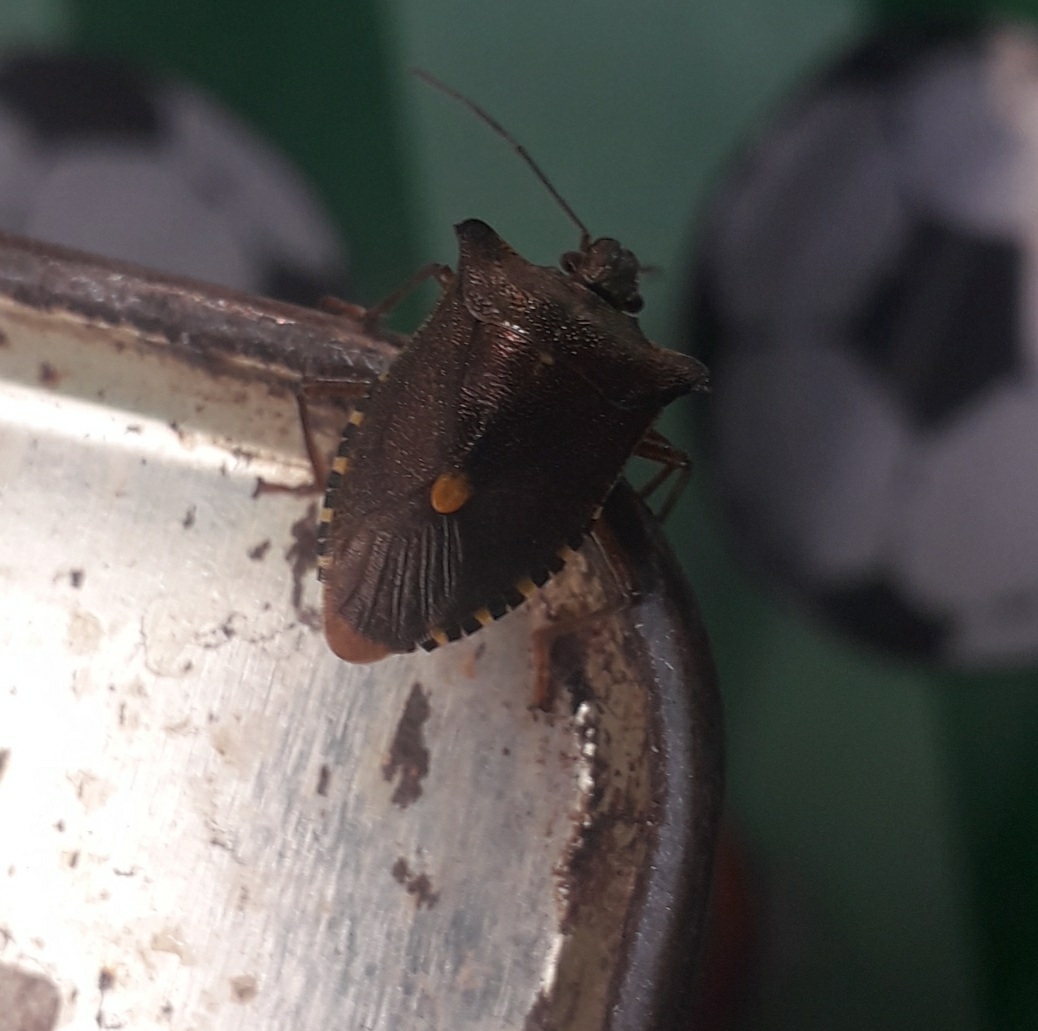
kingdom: Animalia
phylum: Arthropoda
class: Insecta
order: Hemiptera
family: Pentatomidae
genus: Pentatoma
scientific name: Pentatoma rufipes
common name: Forest bug
